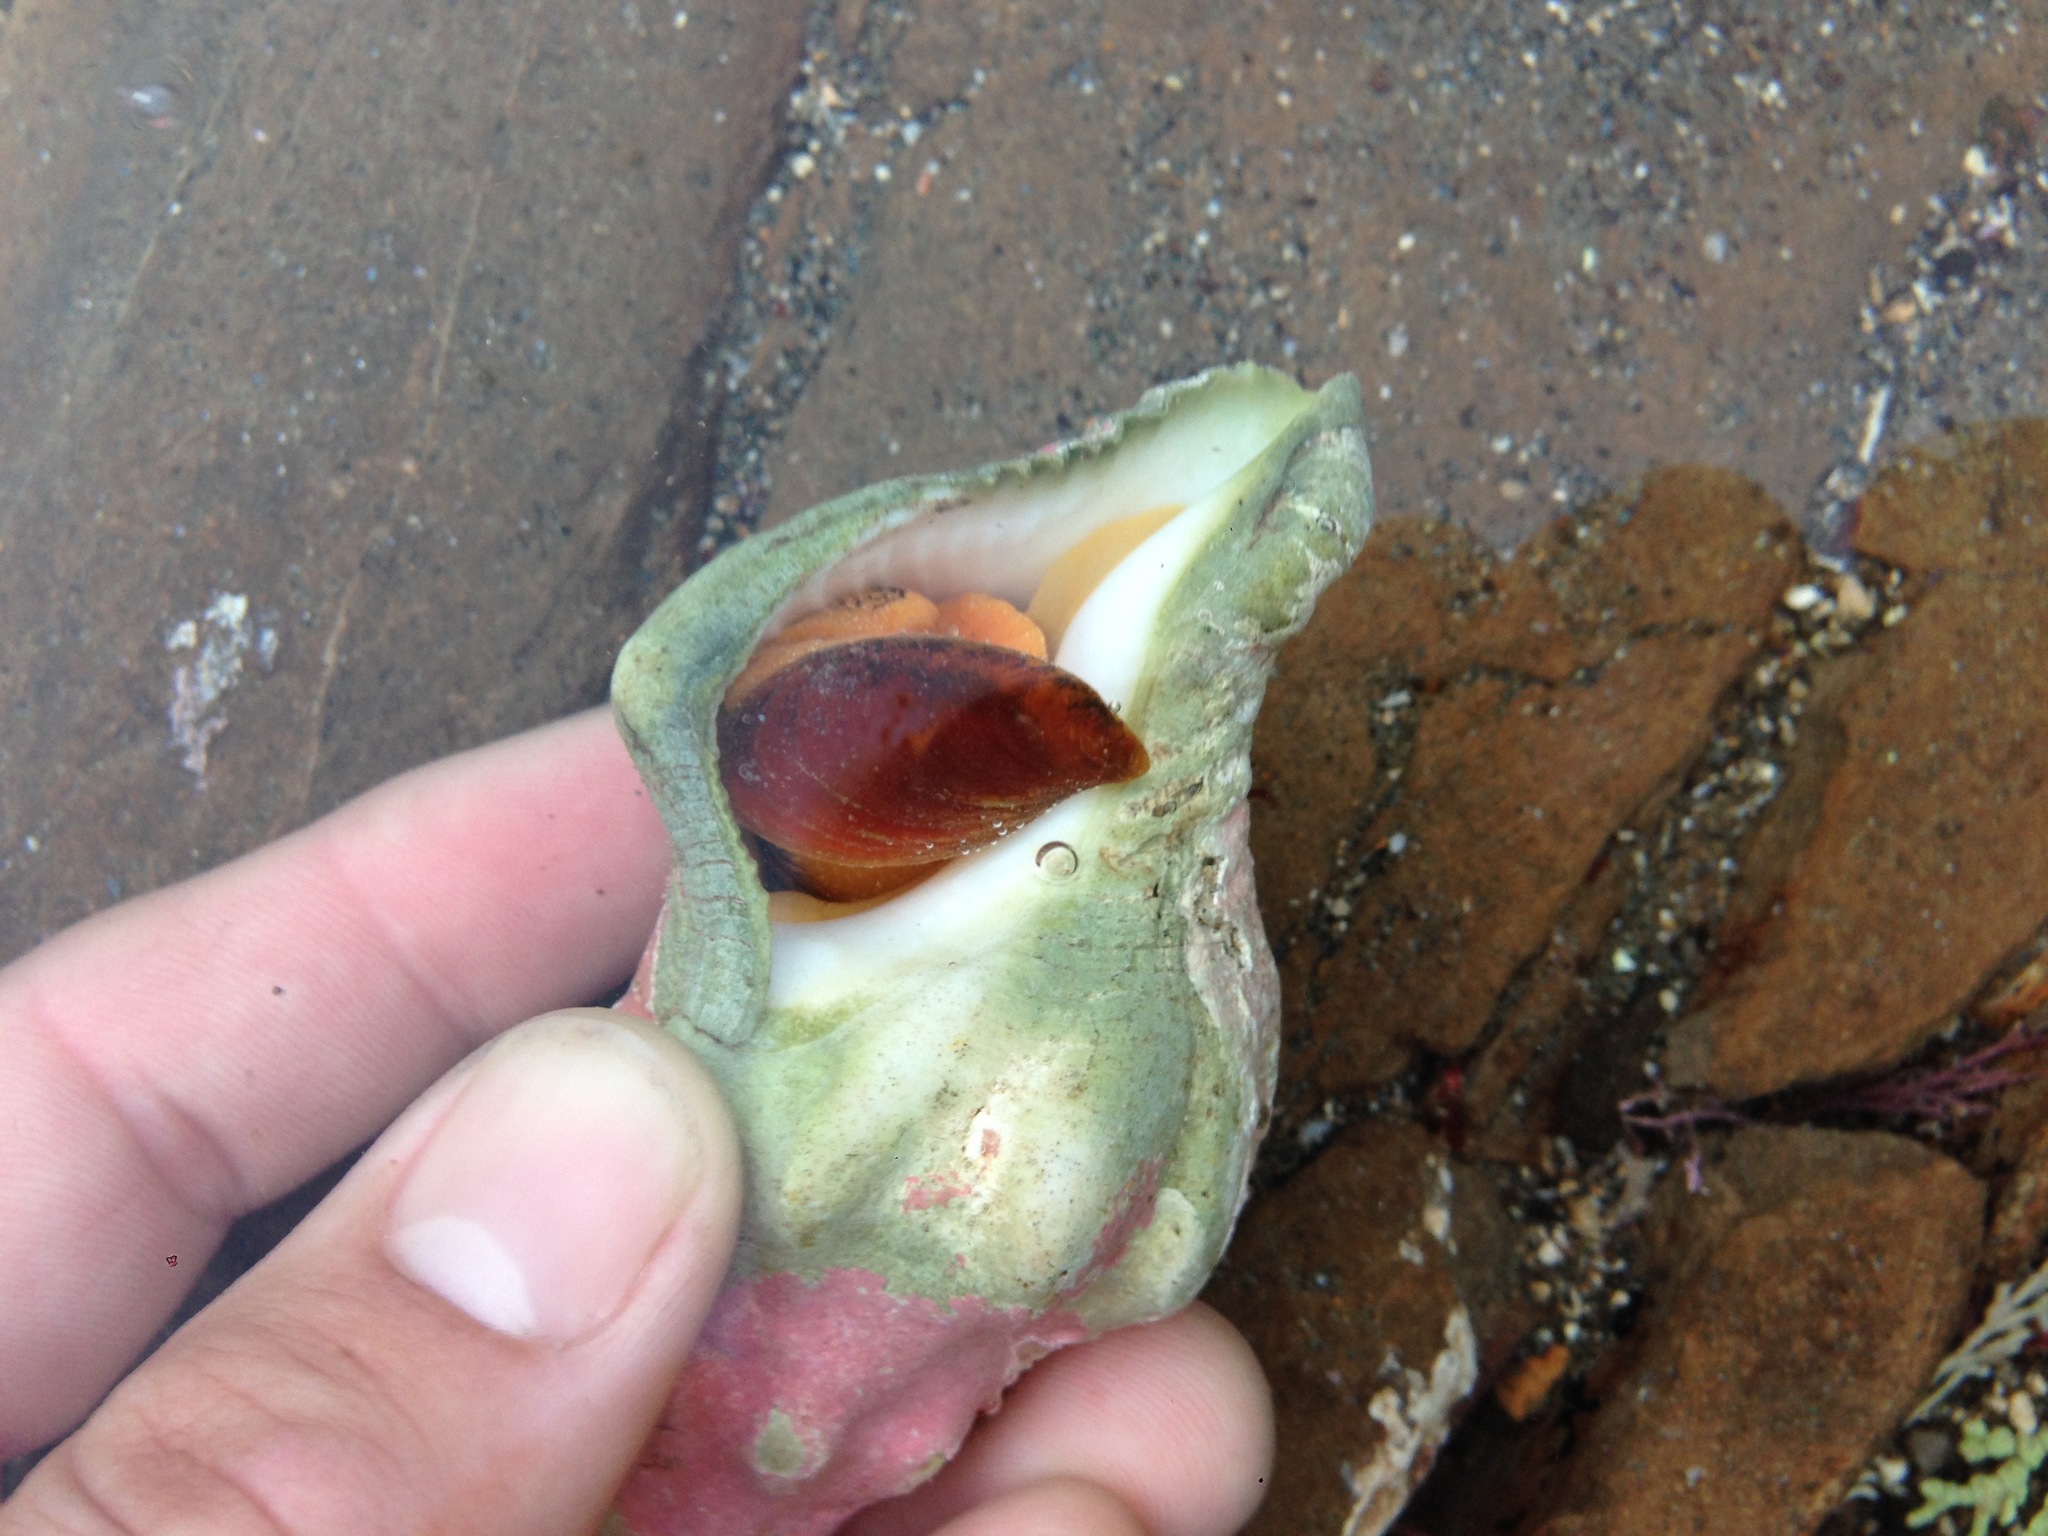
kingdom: Animalia
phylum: Mollusca
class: Gastropoda
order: Neogastropoda
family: Austrosiphonidae
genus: Kelletia
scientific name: Kelletia kelletii
